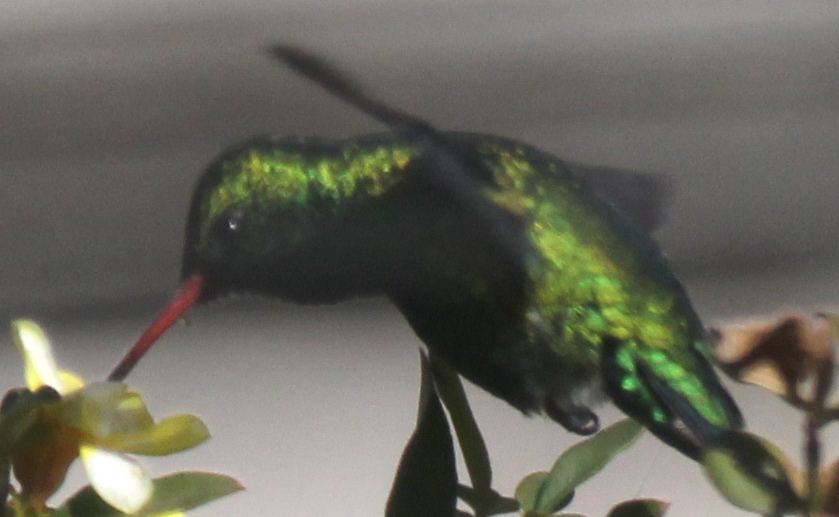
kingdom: Animalia
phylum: Chordata
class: Aves
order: Apodiformes
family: Trochilidae
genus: Chlorostilbon
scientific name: Chlorostilbon lucidus
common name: Glittering-bellied emerald
